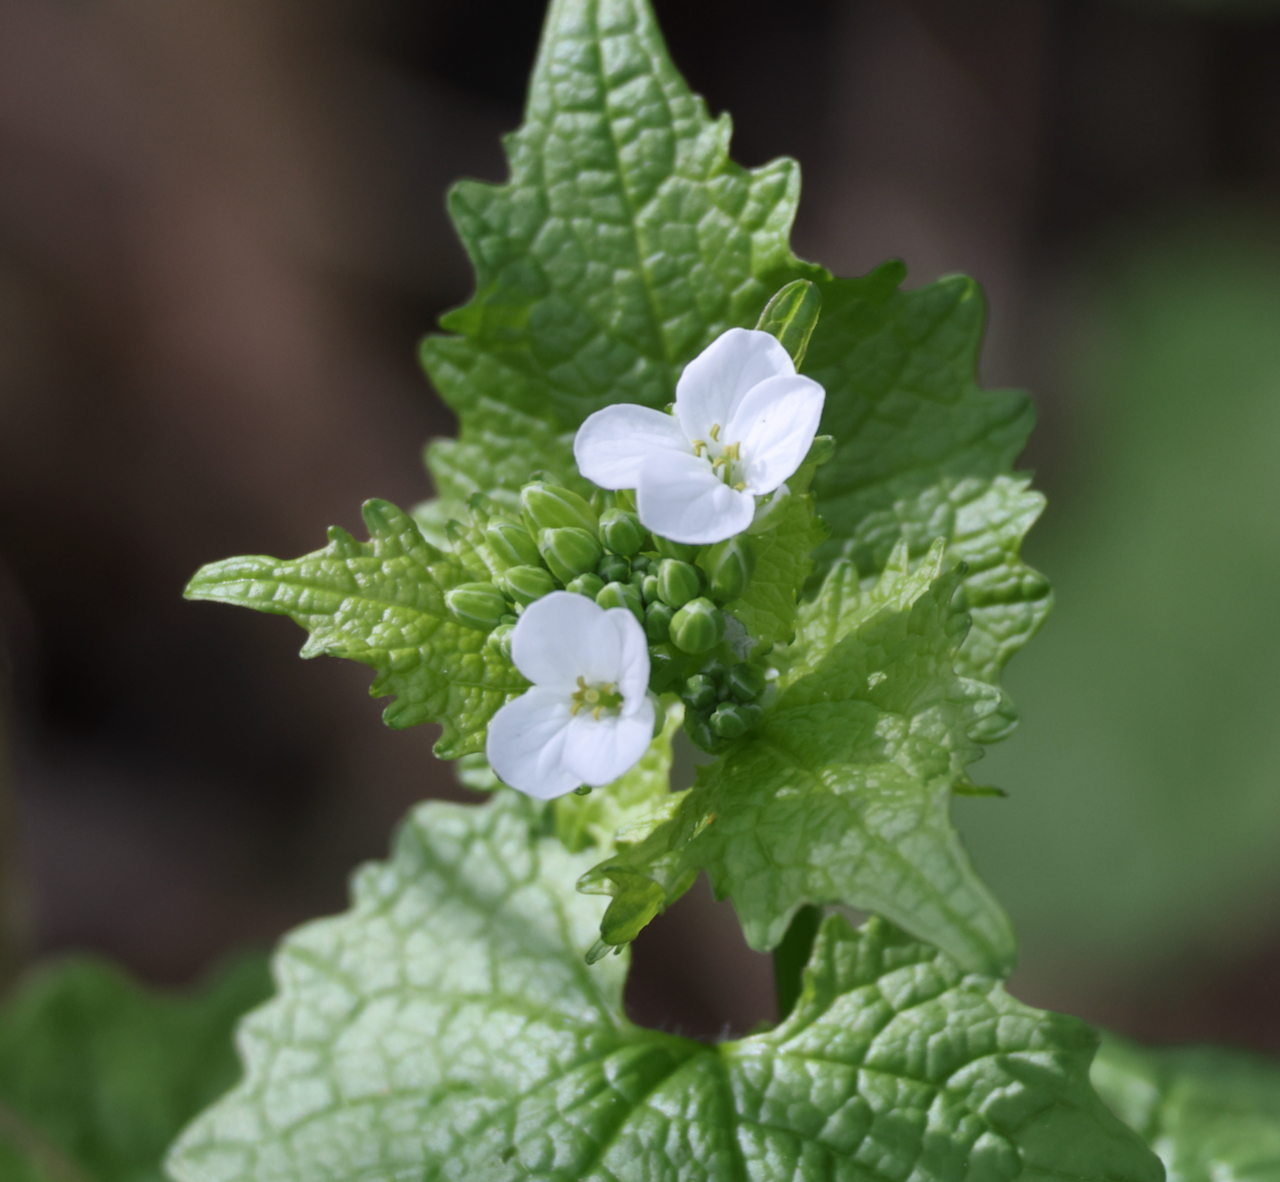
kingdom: Plantae
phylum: Tracheophyta
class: Magnoliopsida
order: Brassicales
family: Brassicaceae
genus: Alliaria
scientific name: Alliaria petiolata
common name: Garlic mustard
